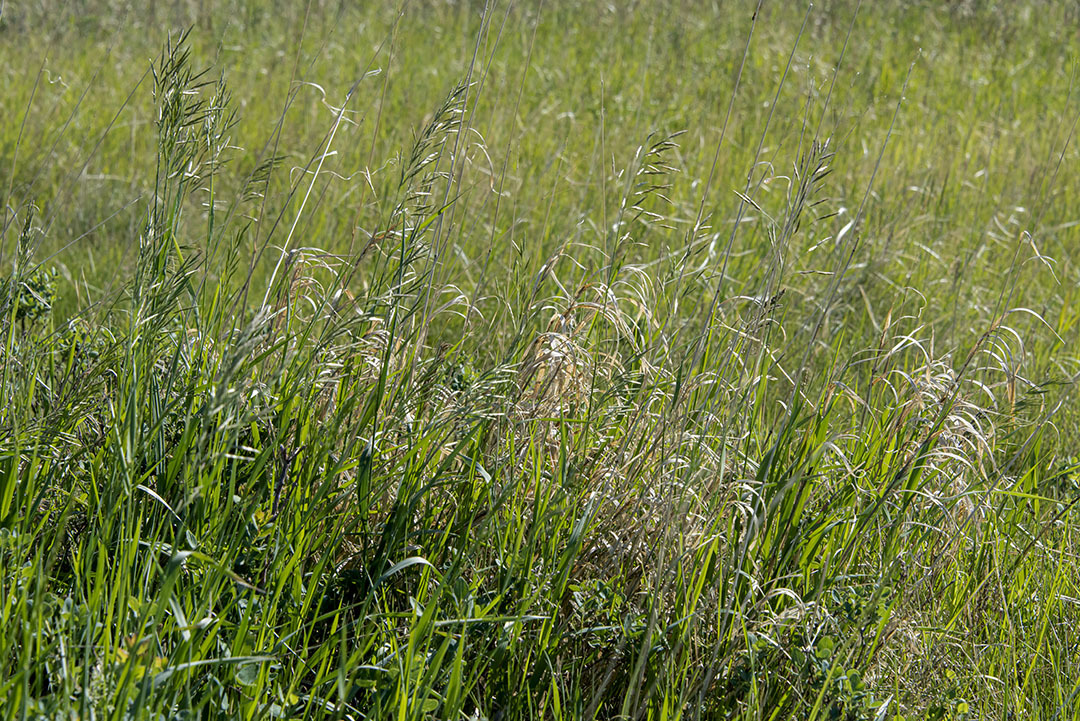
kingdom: Plantae
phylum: Tracheophyta
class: Liliopsida
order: Poales
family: Poaceae
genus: Bromus
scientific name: Bromus inermis
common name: Smooth brome
